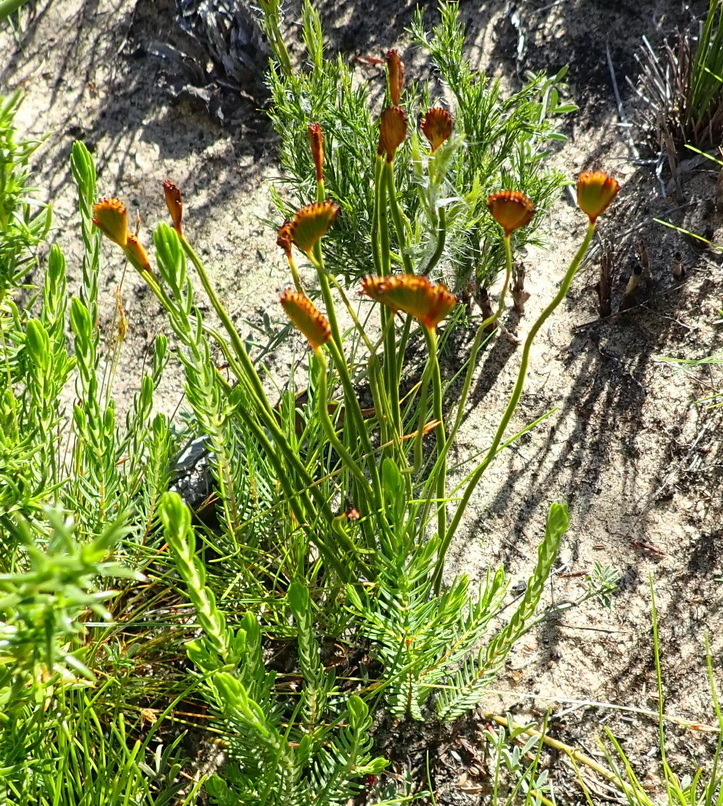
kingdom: Plantae
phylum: Tracheophyta
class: Polypodiopsida
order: Schizaeales
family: Schizaeaceae
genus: Schizaea
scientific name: Schizaea pectinata
